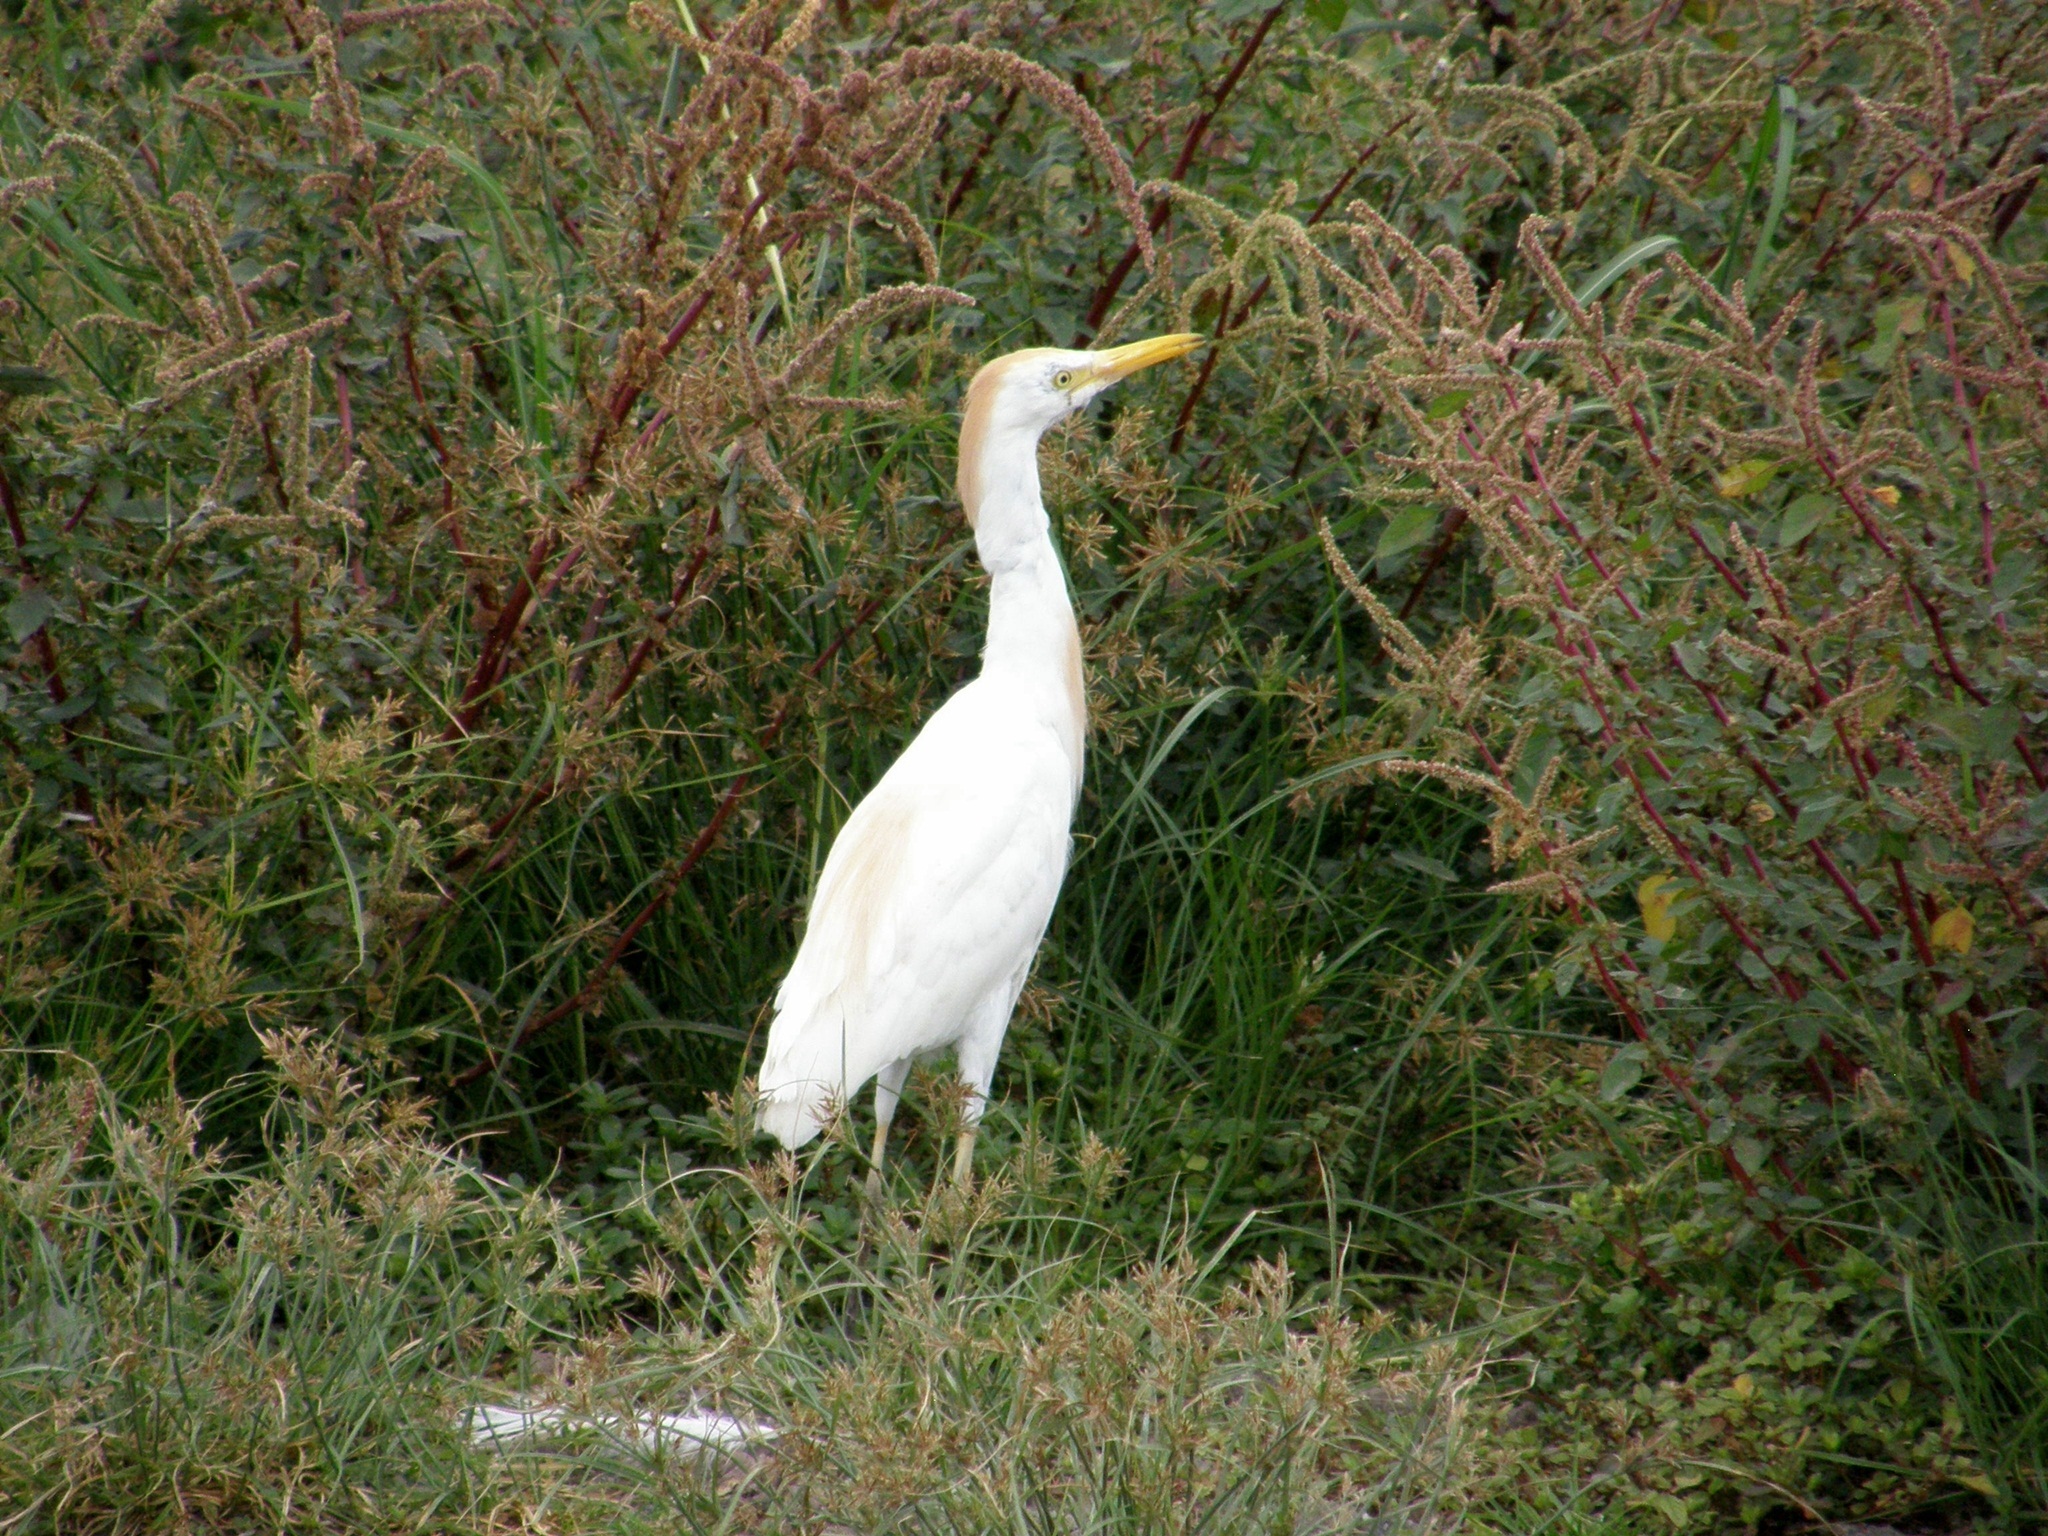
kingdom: Animalia
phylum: Chordata
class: Aves
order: Pelecaniformes
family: Ardeidae
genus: Bubulcus
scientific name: Bubulcus ibis
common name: Cattle egret
